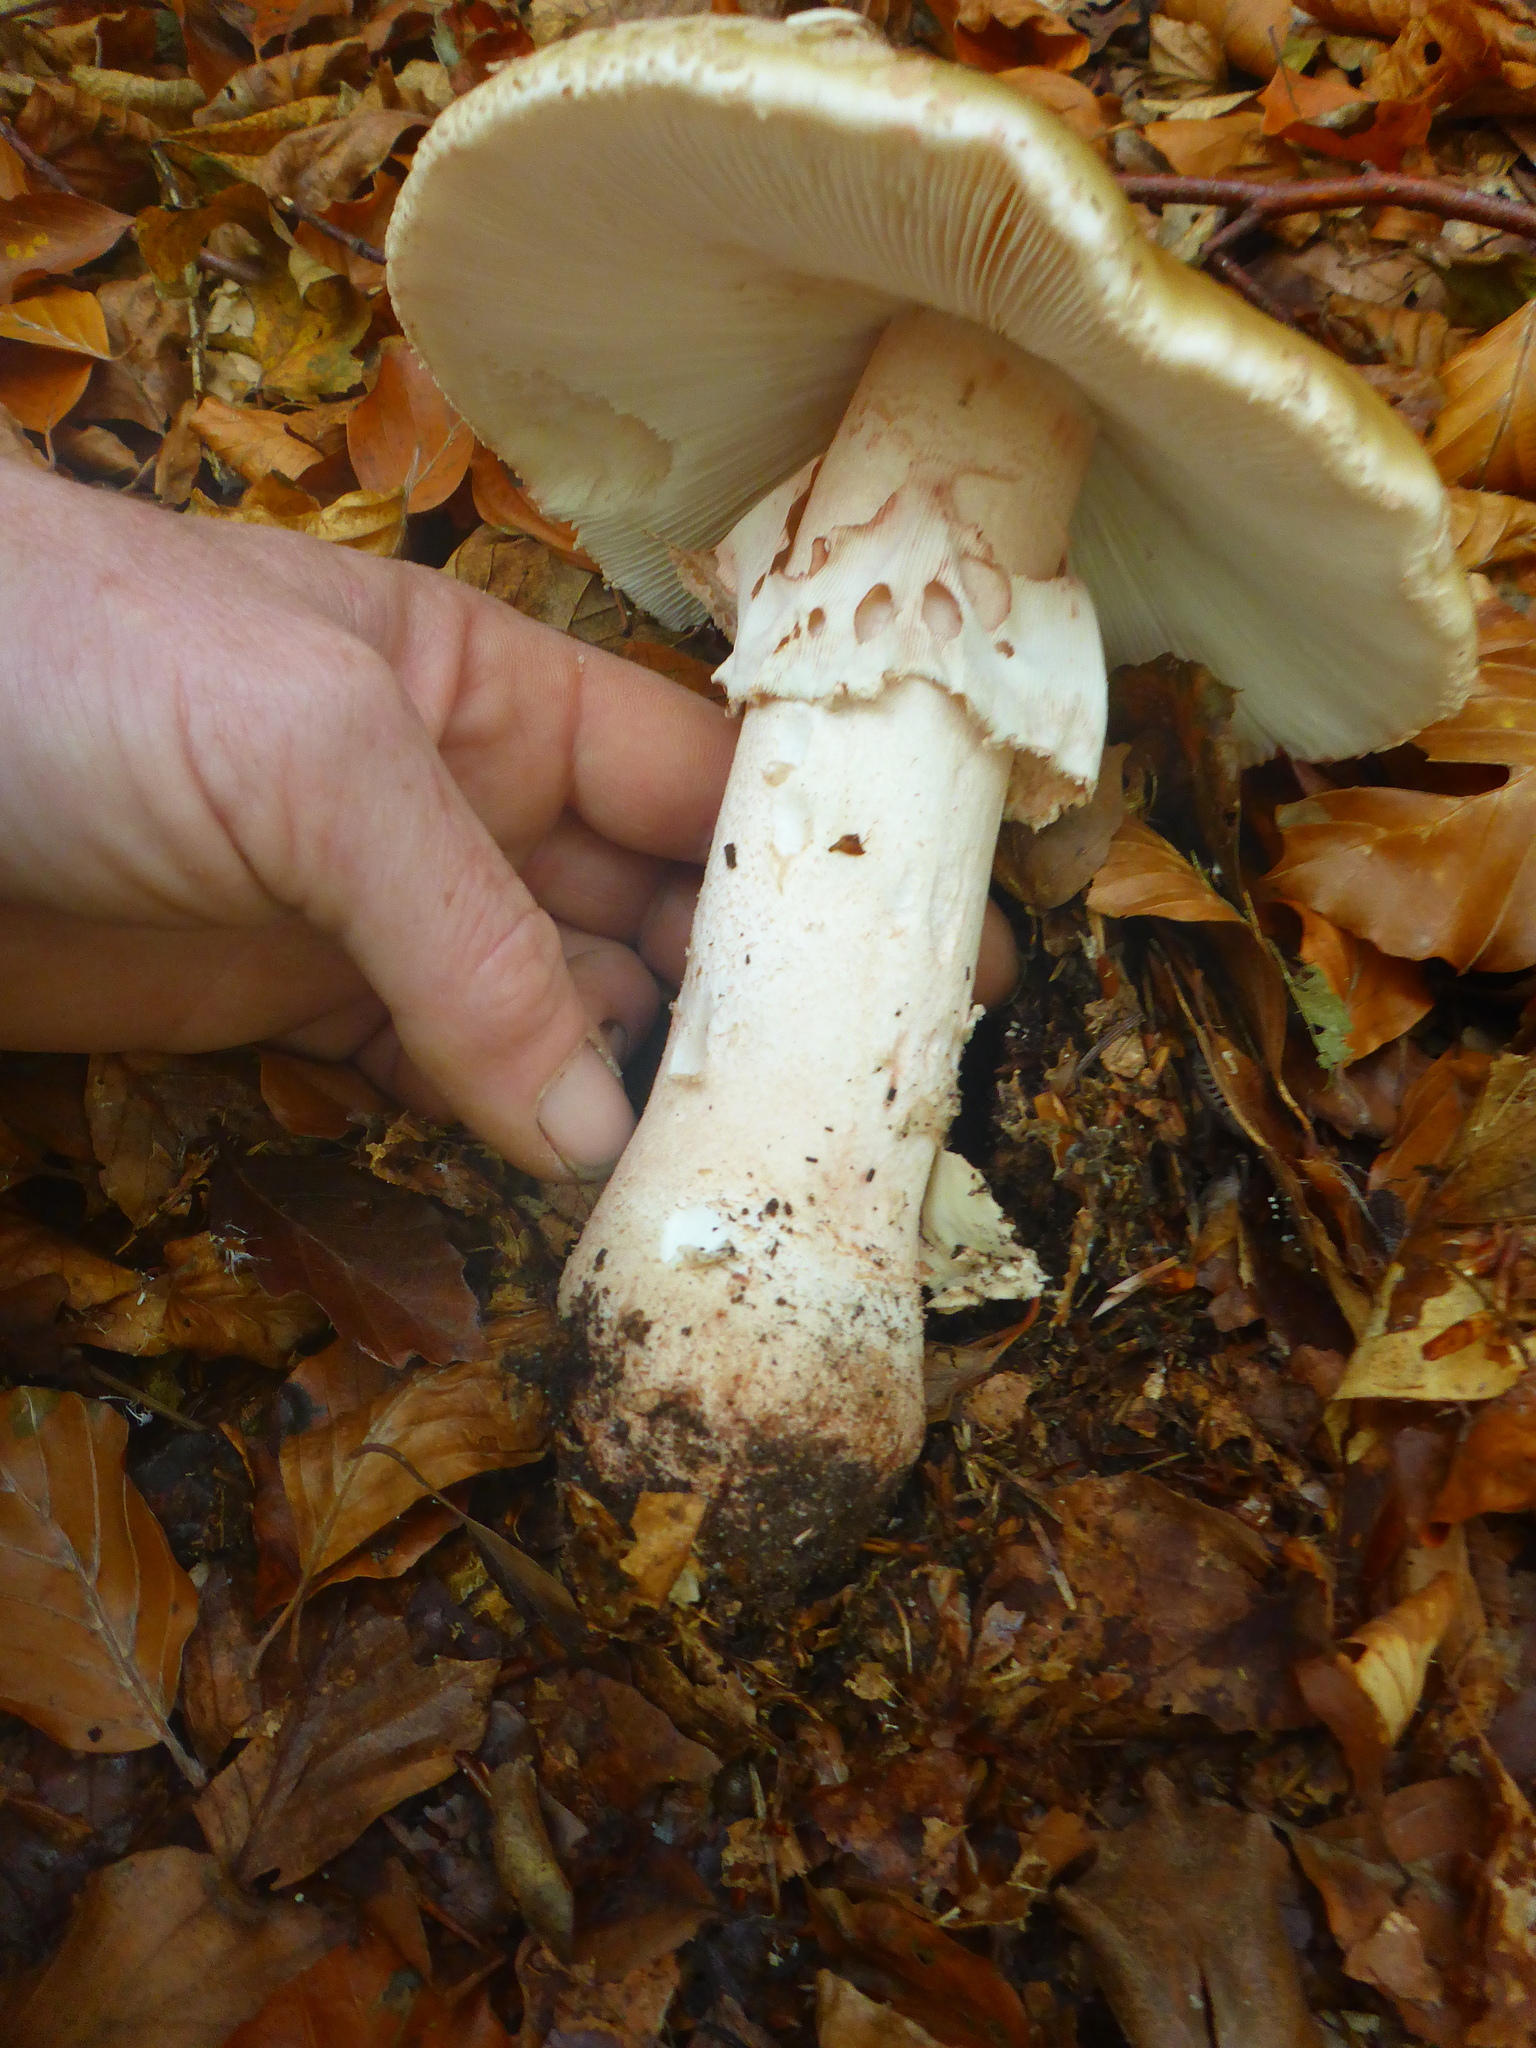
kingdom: Fungi
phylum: Basidiomycota
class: Agaricomycetes
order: Agaricales
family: Amanitaceae
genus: Amanita
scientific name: Amanita rubescens
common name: Blusher
